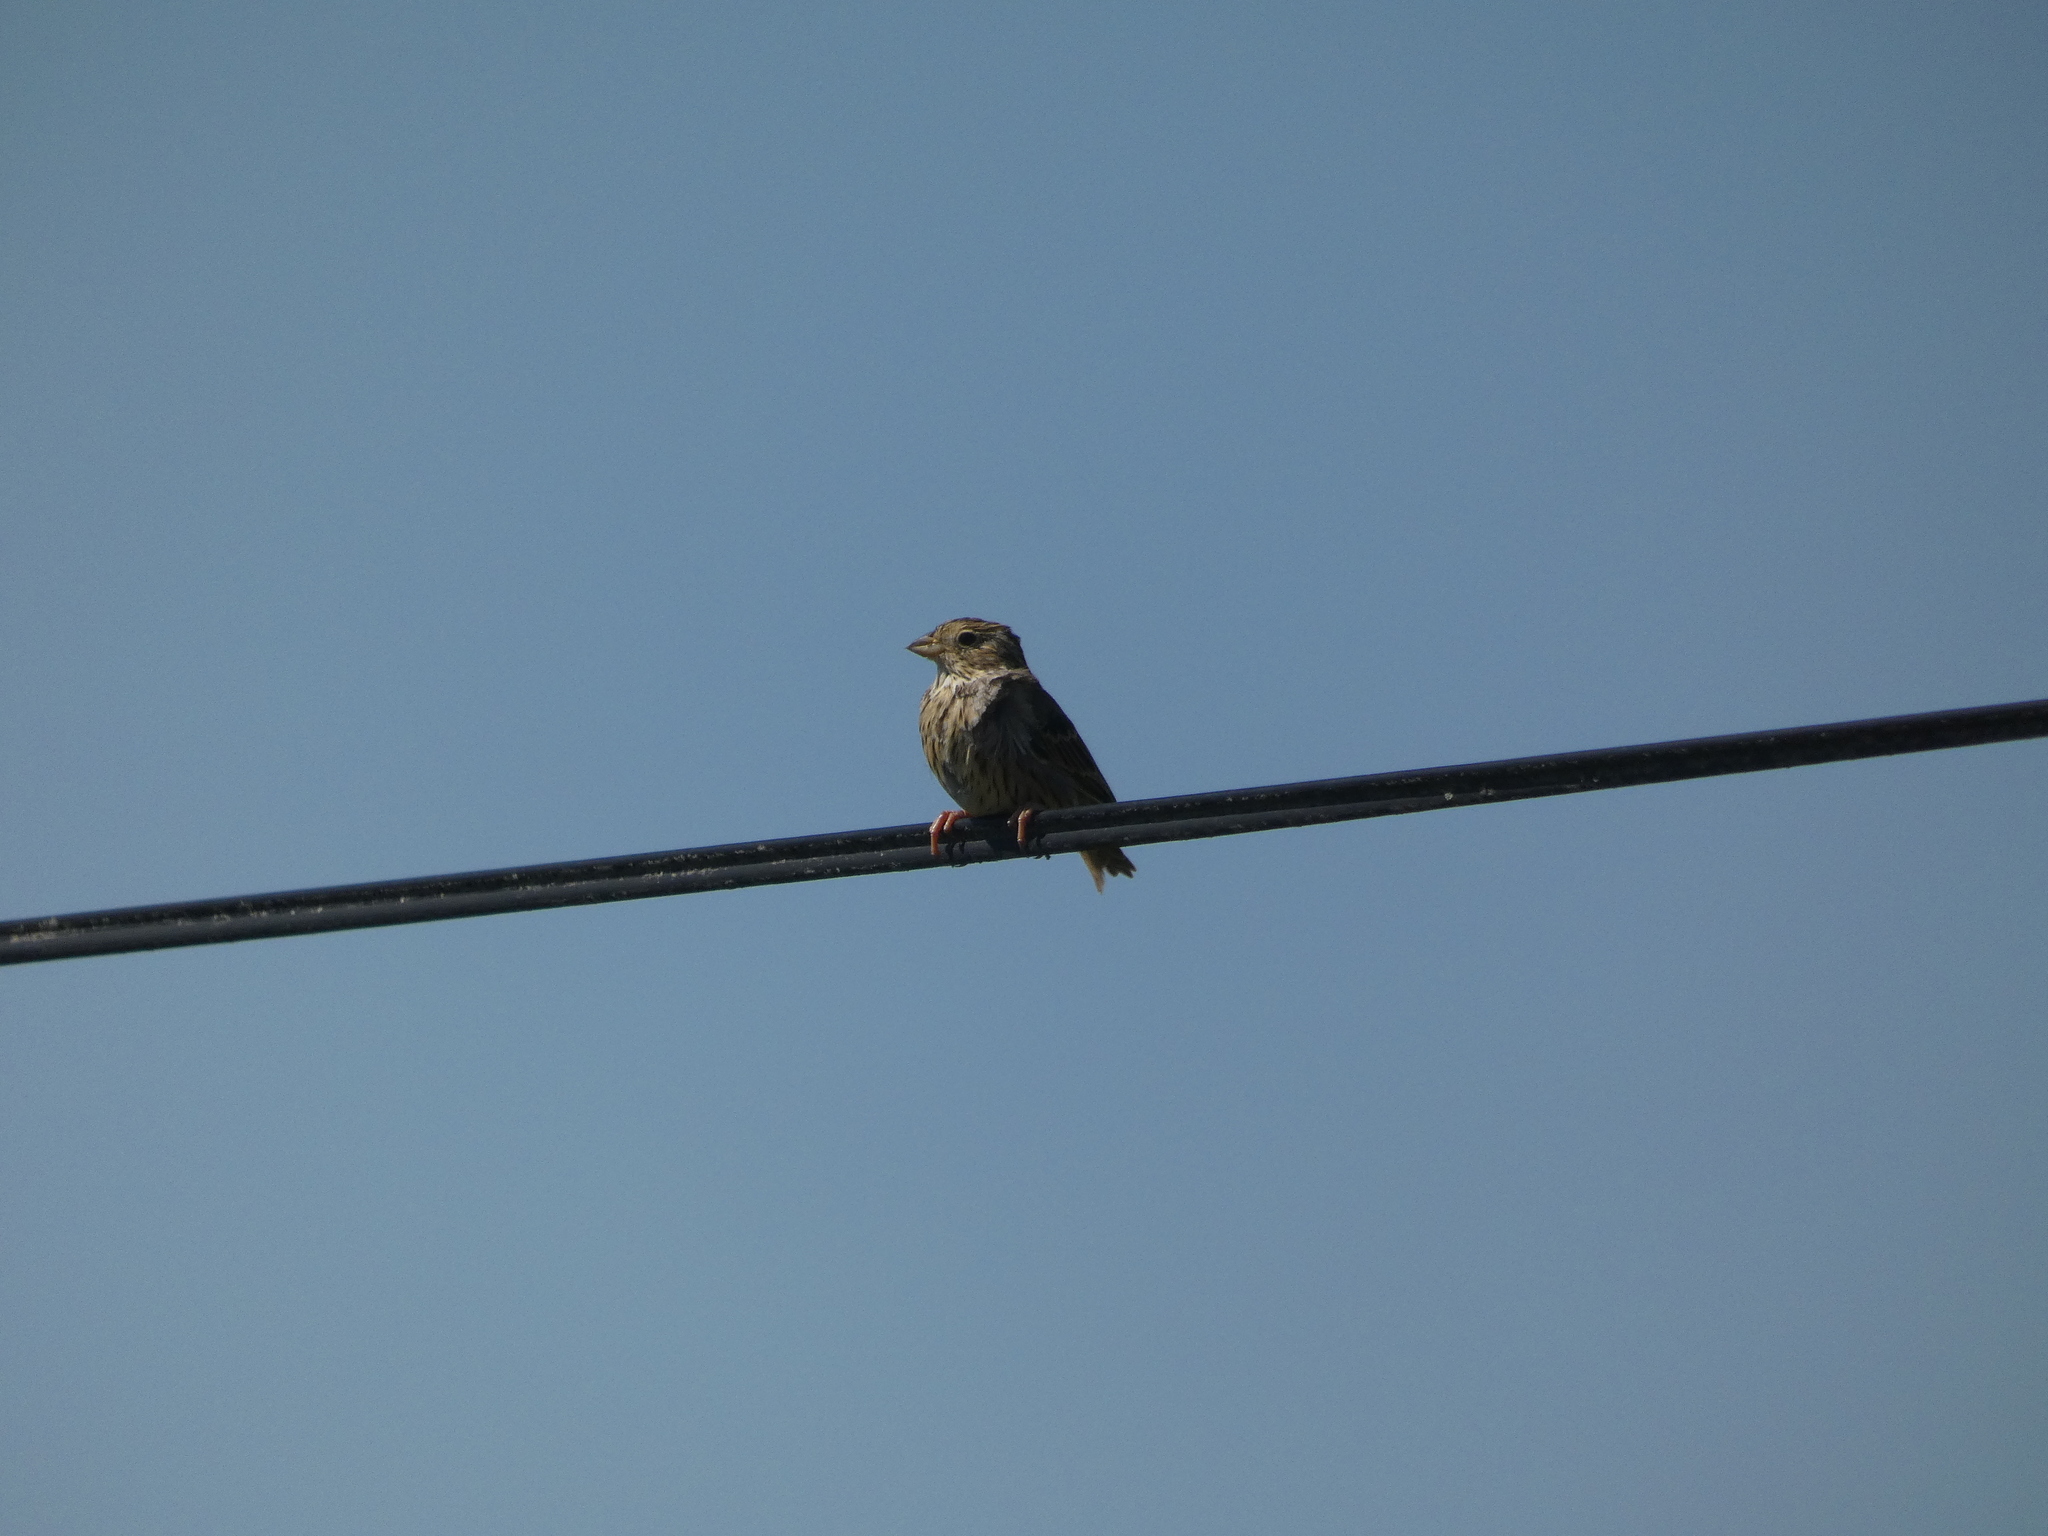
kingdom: Animalia
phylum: Chordata
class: Aves
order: Passeriformes
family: Emberizidae
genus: Emberiza
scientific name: Emberiza calandra
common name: Corn bunting
